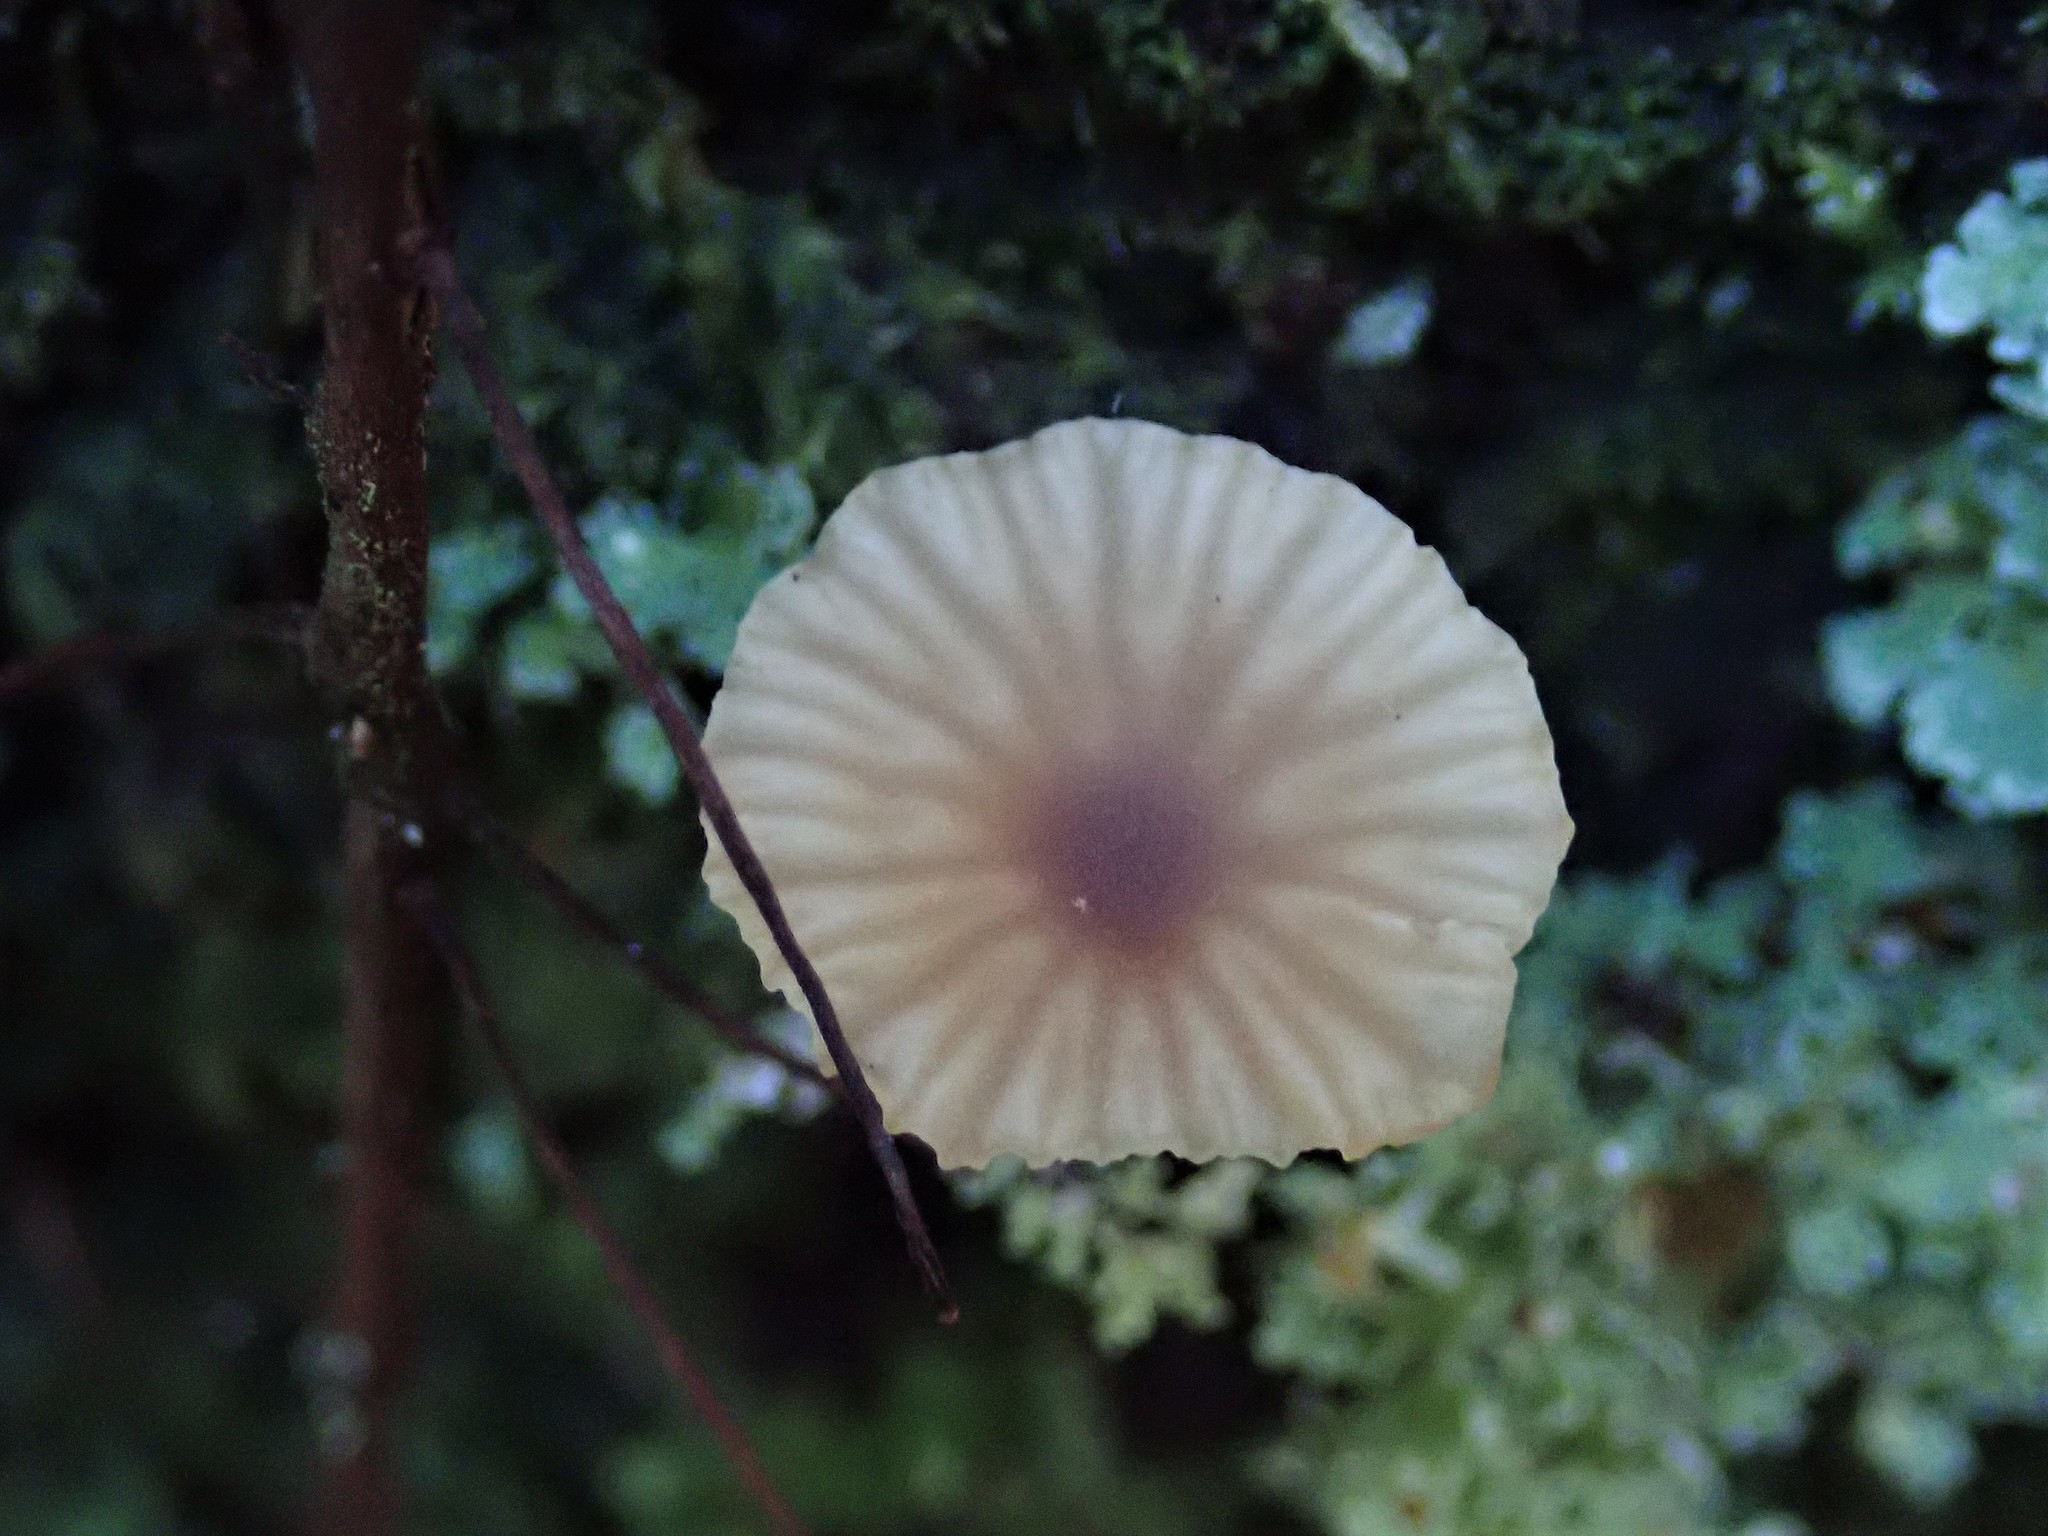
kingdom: Fungi
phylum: Basidiomycota
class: Agaricomycetes
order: Agaricales
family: Hygrophoraceae
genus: Lichenomphalia
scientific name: Lichenomphalia
